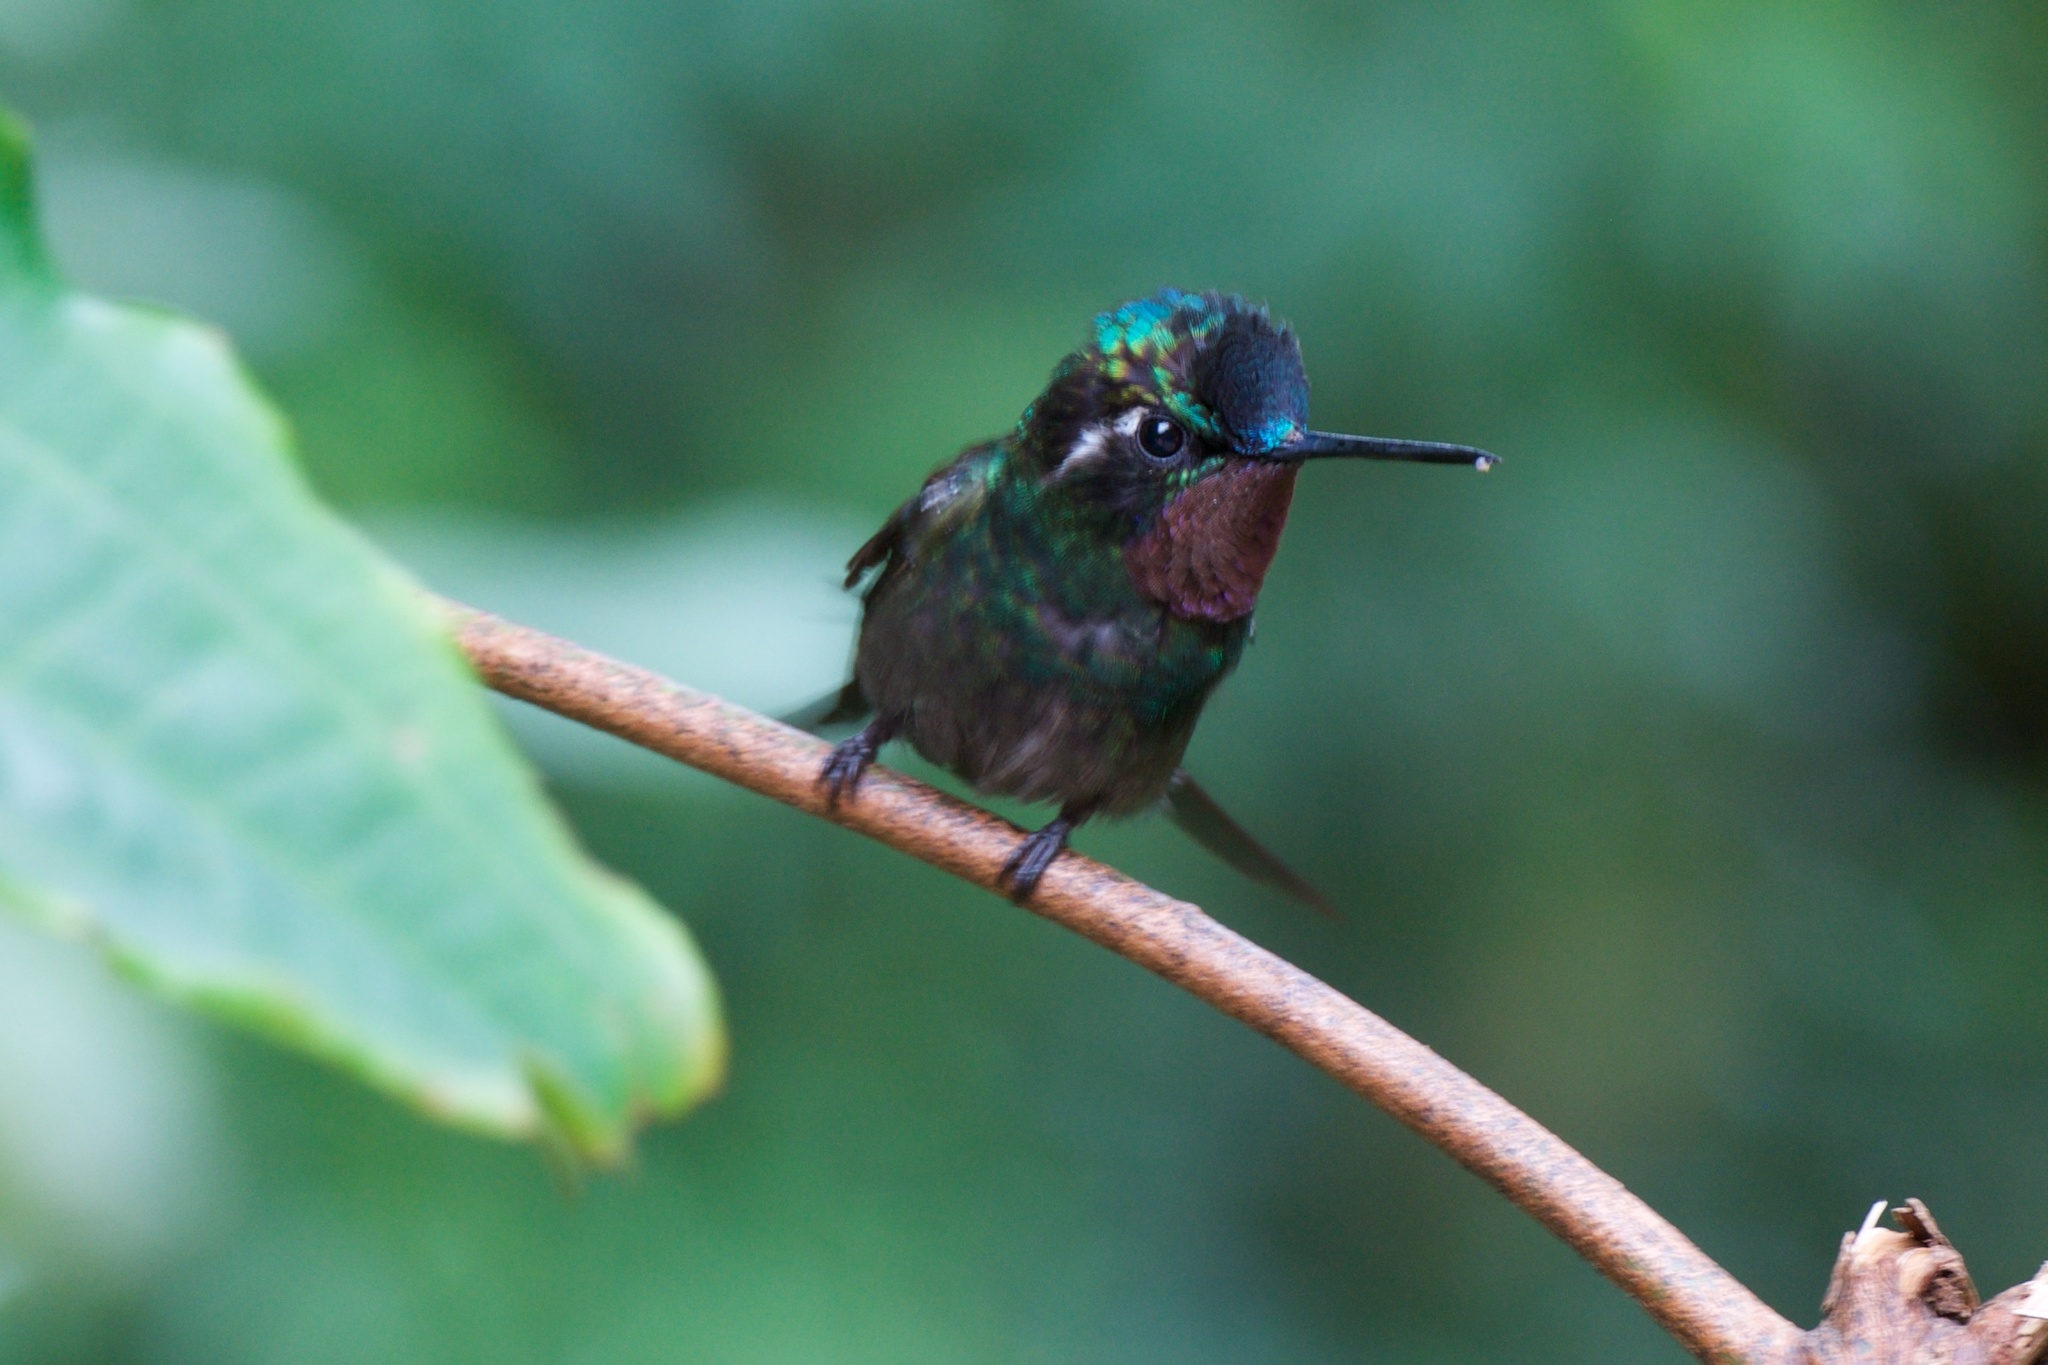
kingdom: Animalia
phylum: Chordata
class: Aves
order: Apodiformes
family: Trochilidae
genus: Lampornis
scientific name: Lampornis calolaemus
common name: Purple-throated mountain-gem
